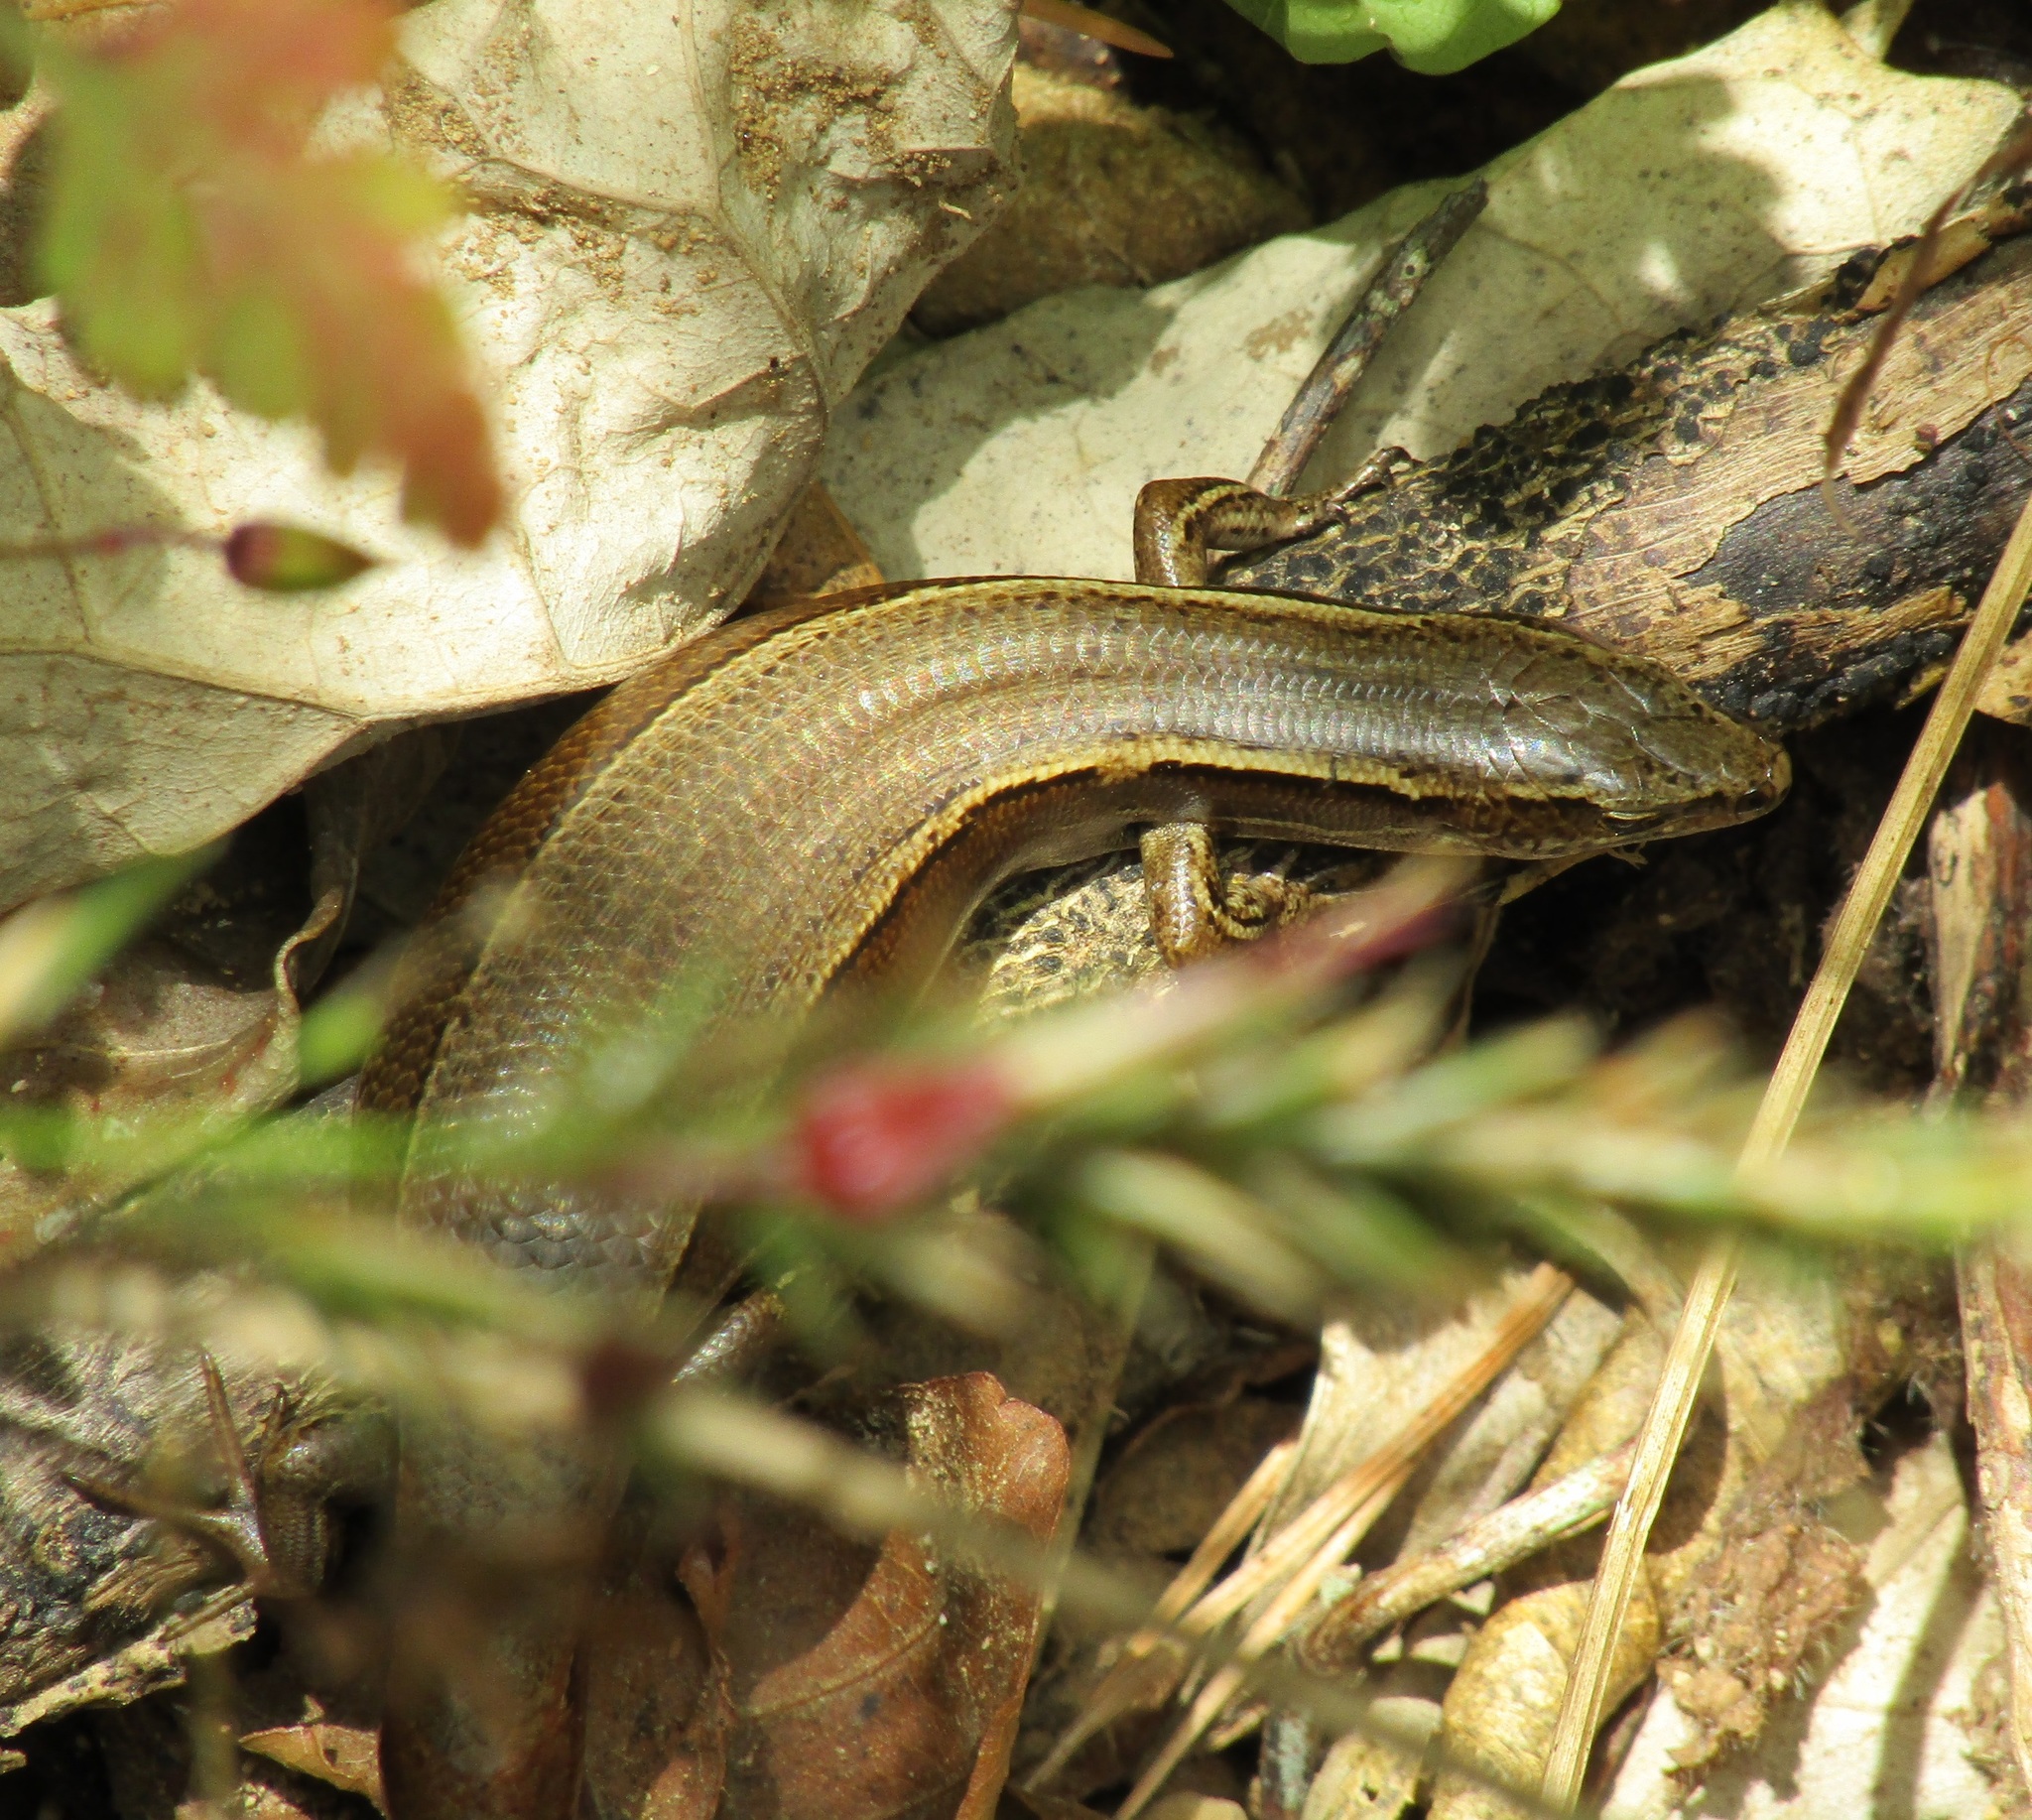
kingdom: Animalia
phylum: Chordata
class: Squamata
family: Scincidae
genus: Oligosoma
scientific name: Oligosoma zelandicum
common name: Brown skink
